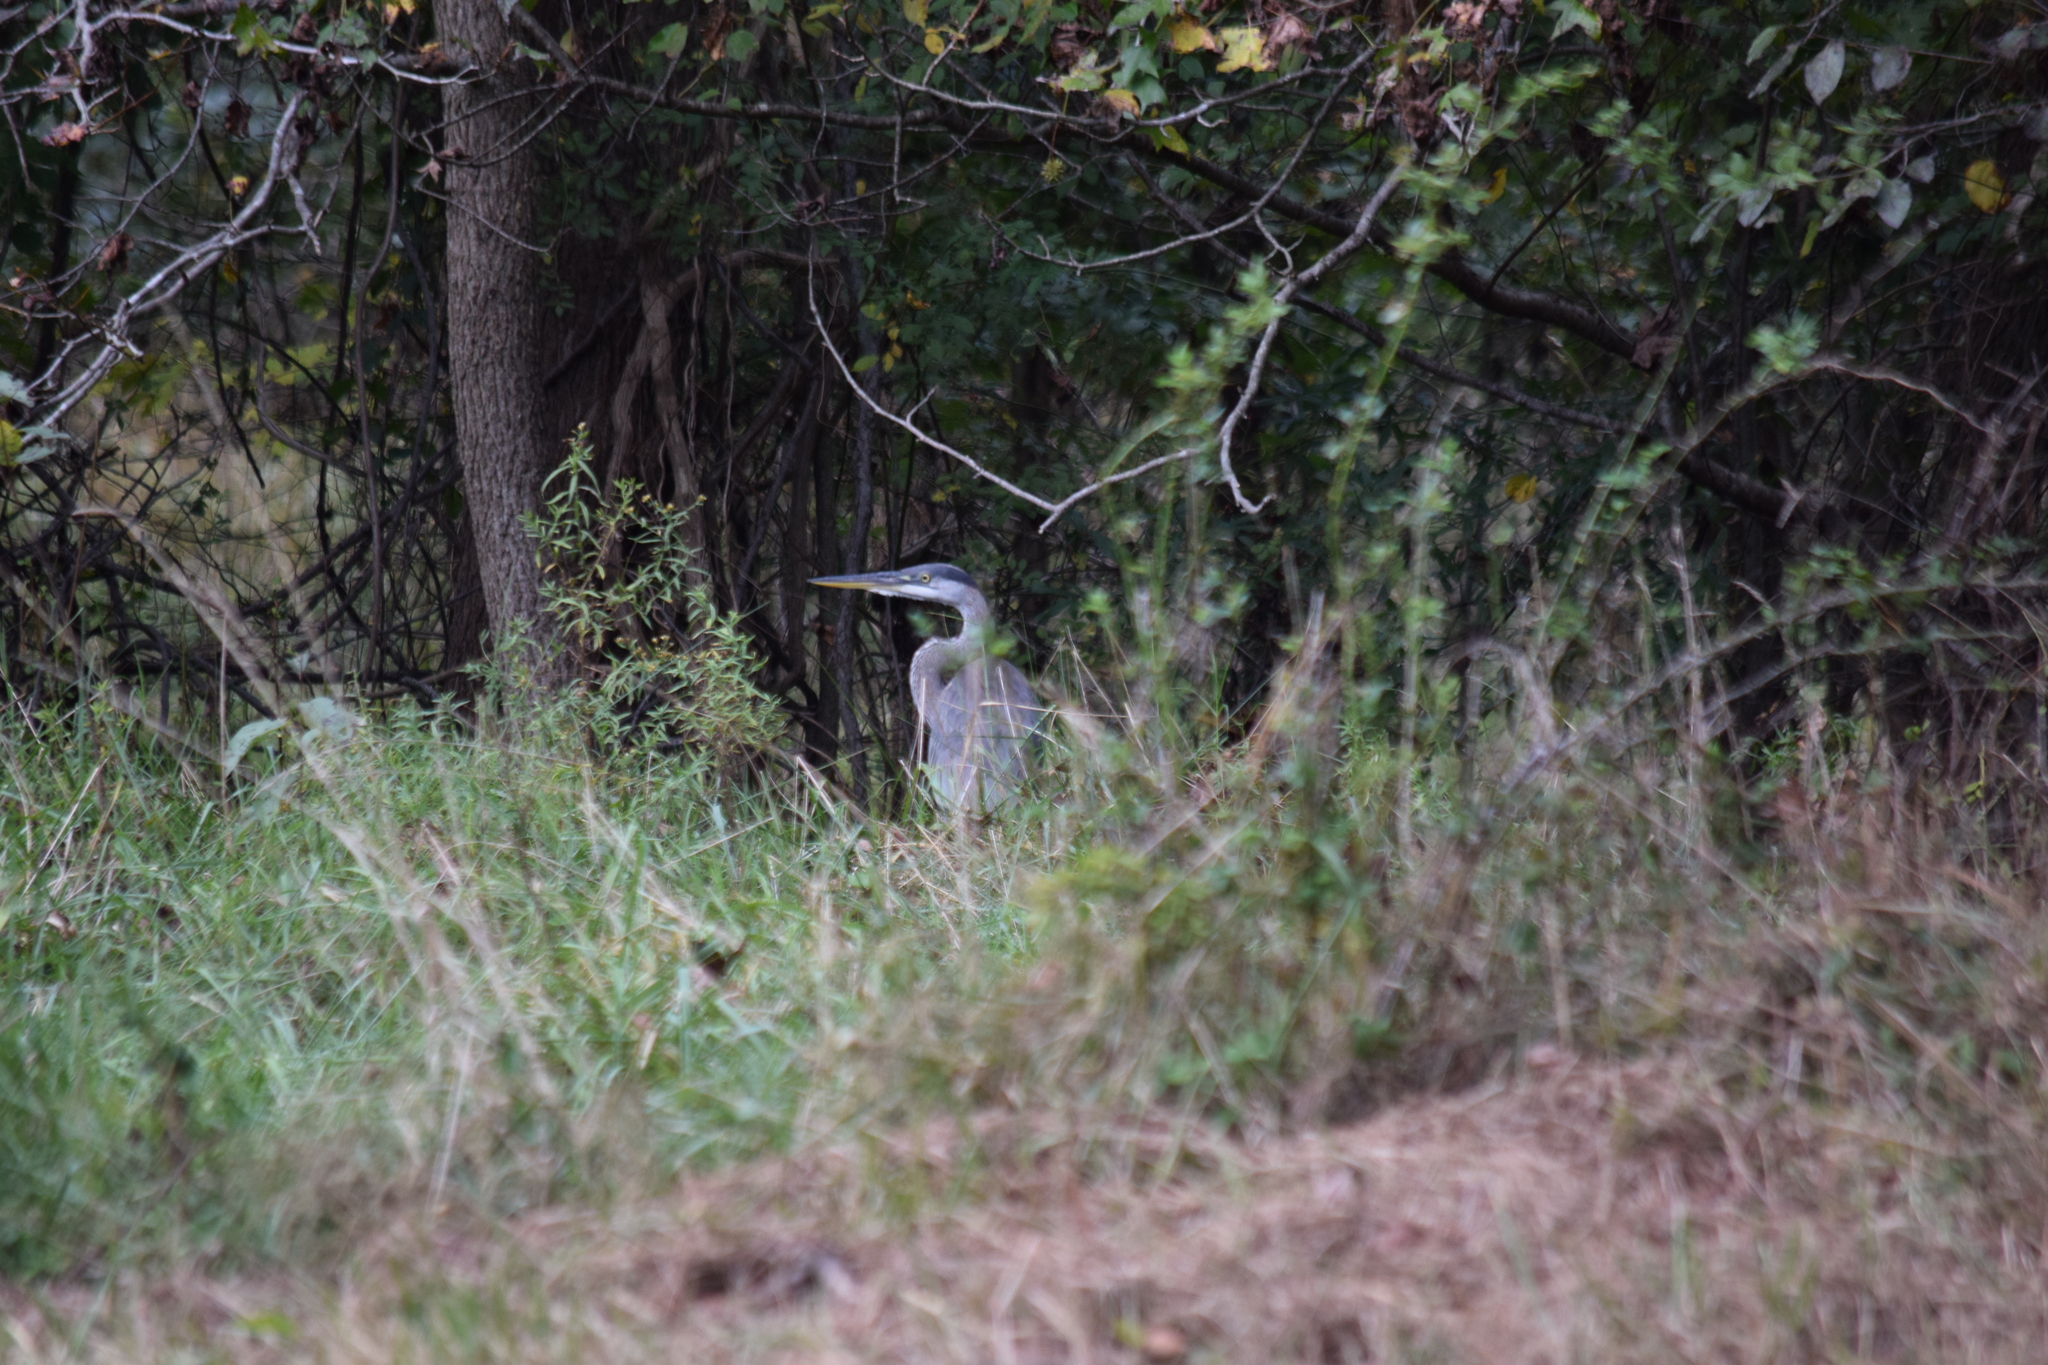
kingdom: Animalia
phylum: Chordata
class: Aves
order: Pelecaniformes
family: Ardeidae
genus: Ardea
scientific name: Ardea herodias
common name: Great blue heron
